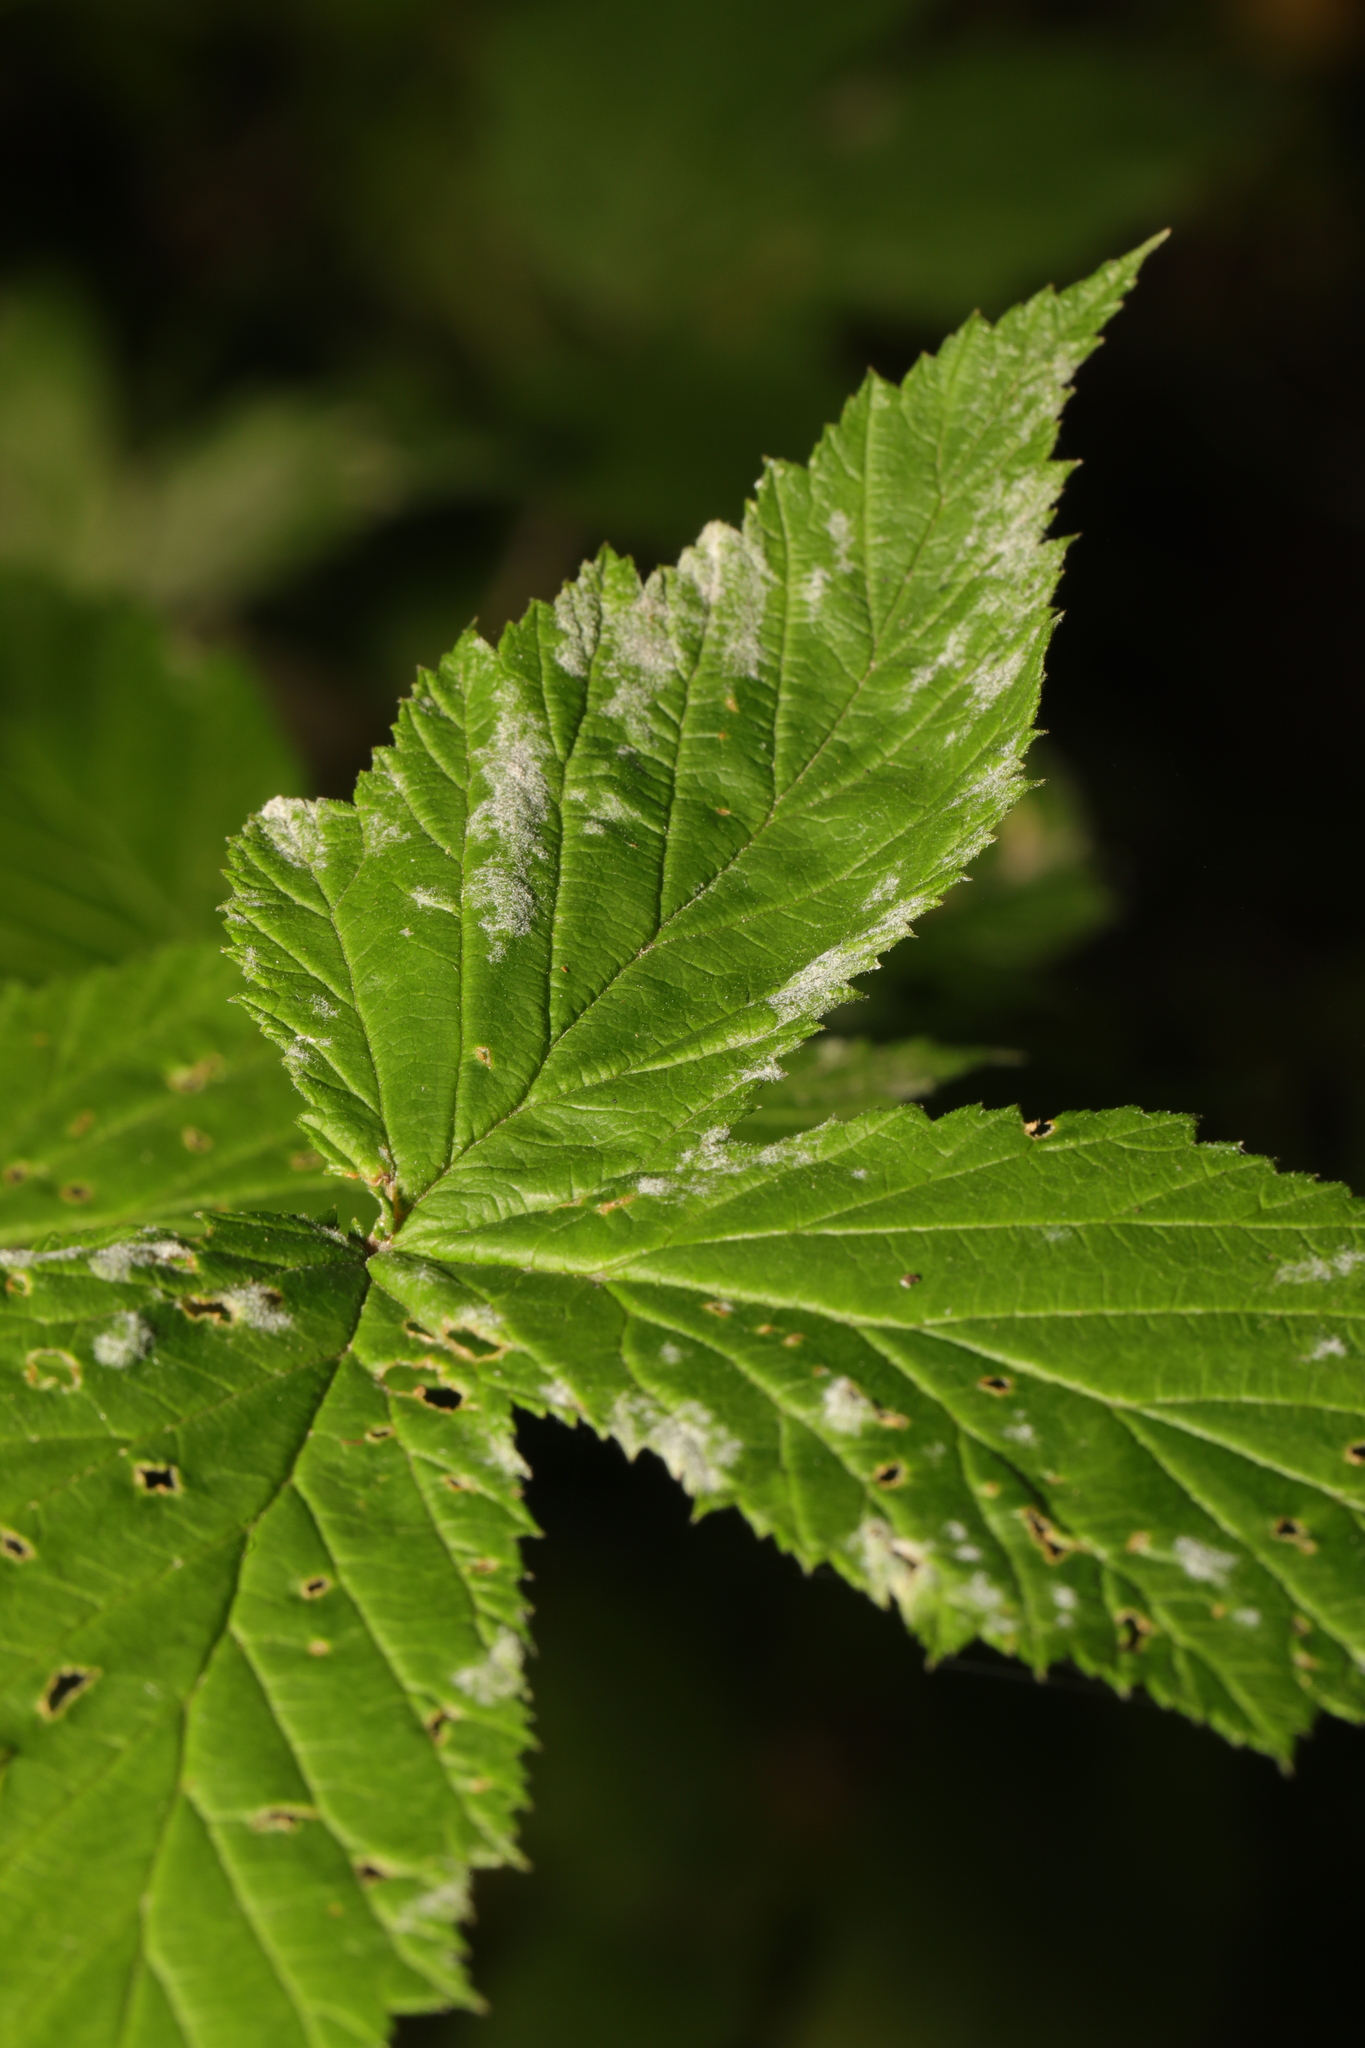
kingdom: Fungi
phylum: Ascomycota
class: Leotiomycetes
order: Helotiales
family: Erysiphaceae
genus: Podosphaera
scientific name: Podosphaera filipendulae
